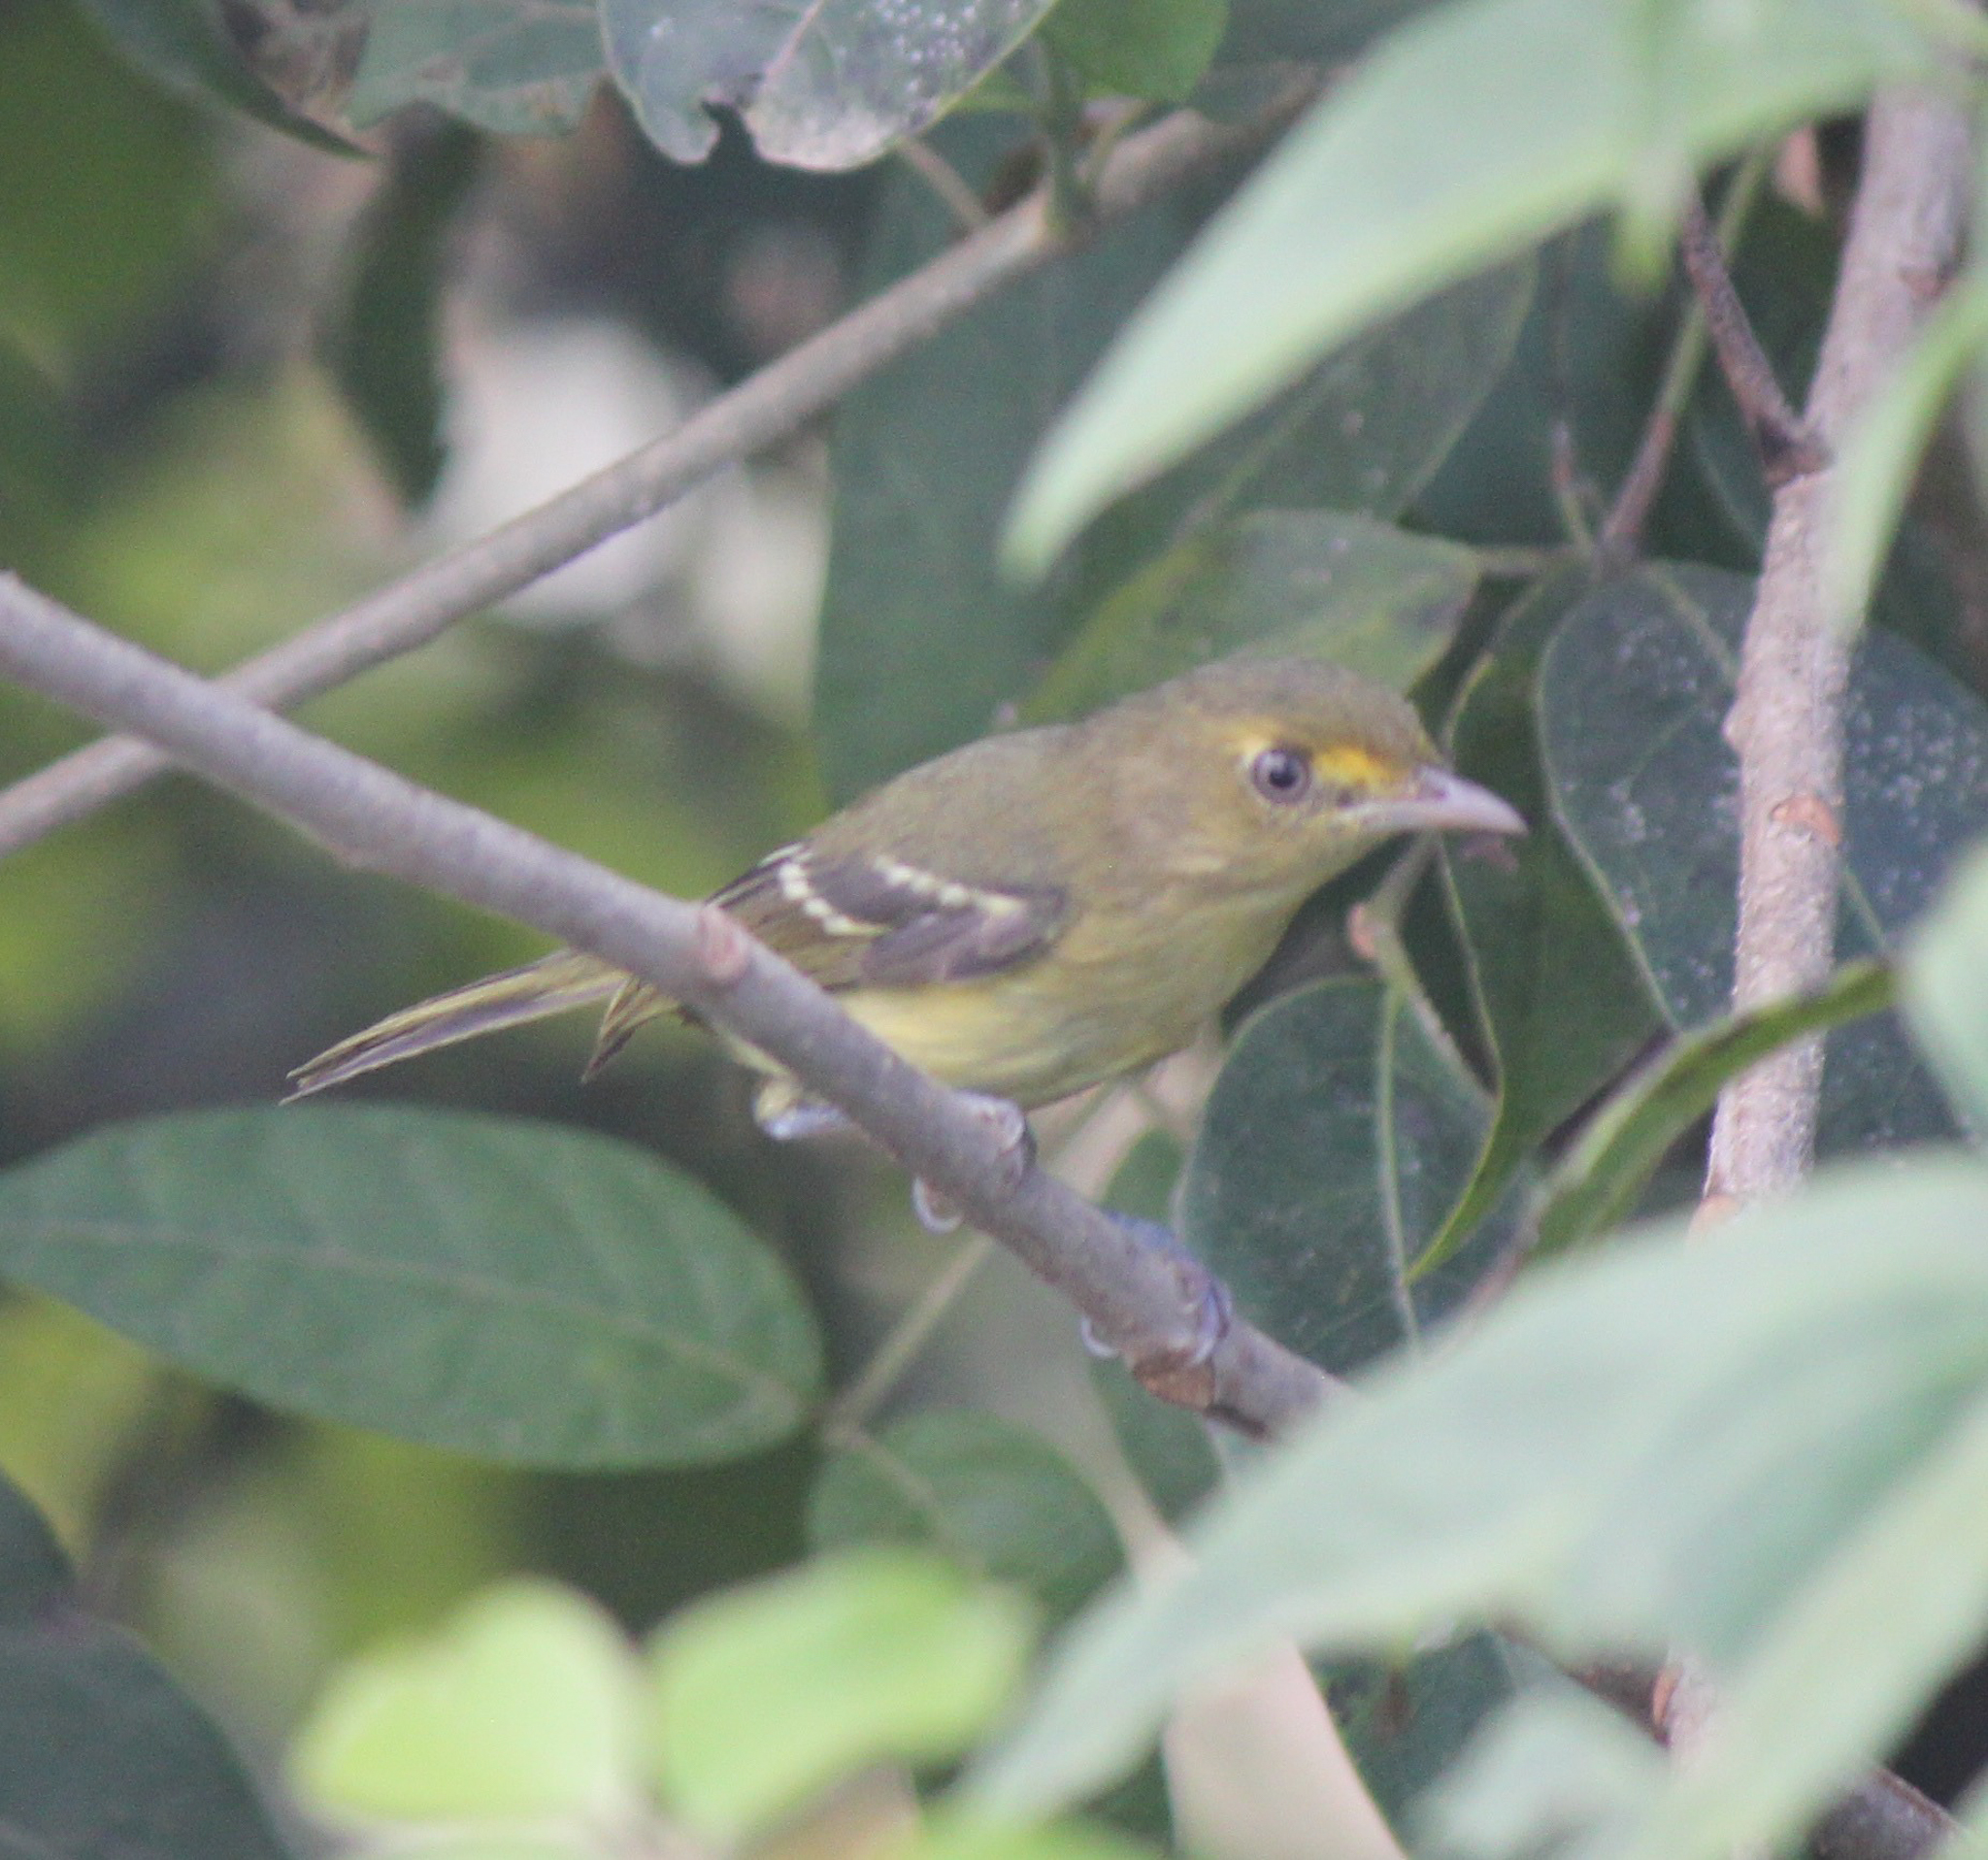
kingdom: Animalia
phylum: Chordata
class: Aves
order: Passeriformes
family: Vireonidae
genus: Vireo
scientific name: Vireo pallens
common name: Mangrove vireo
